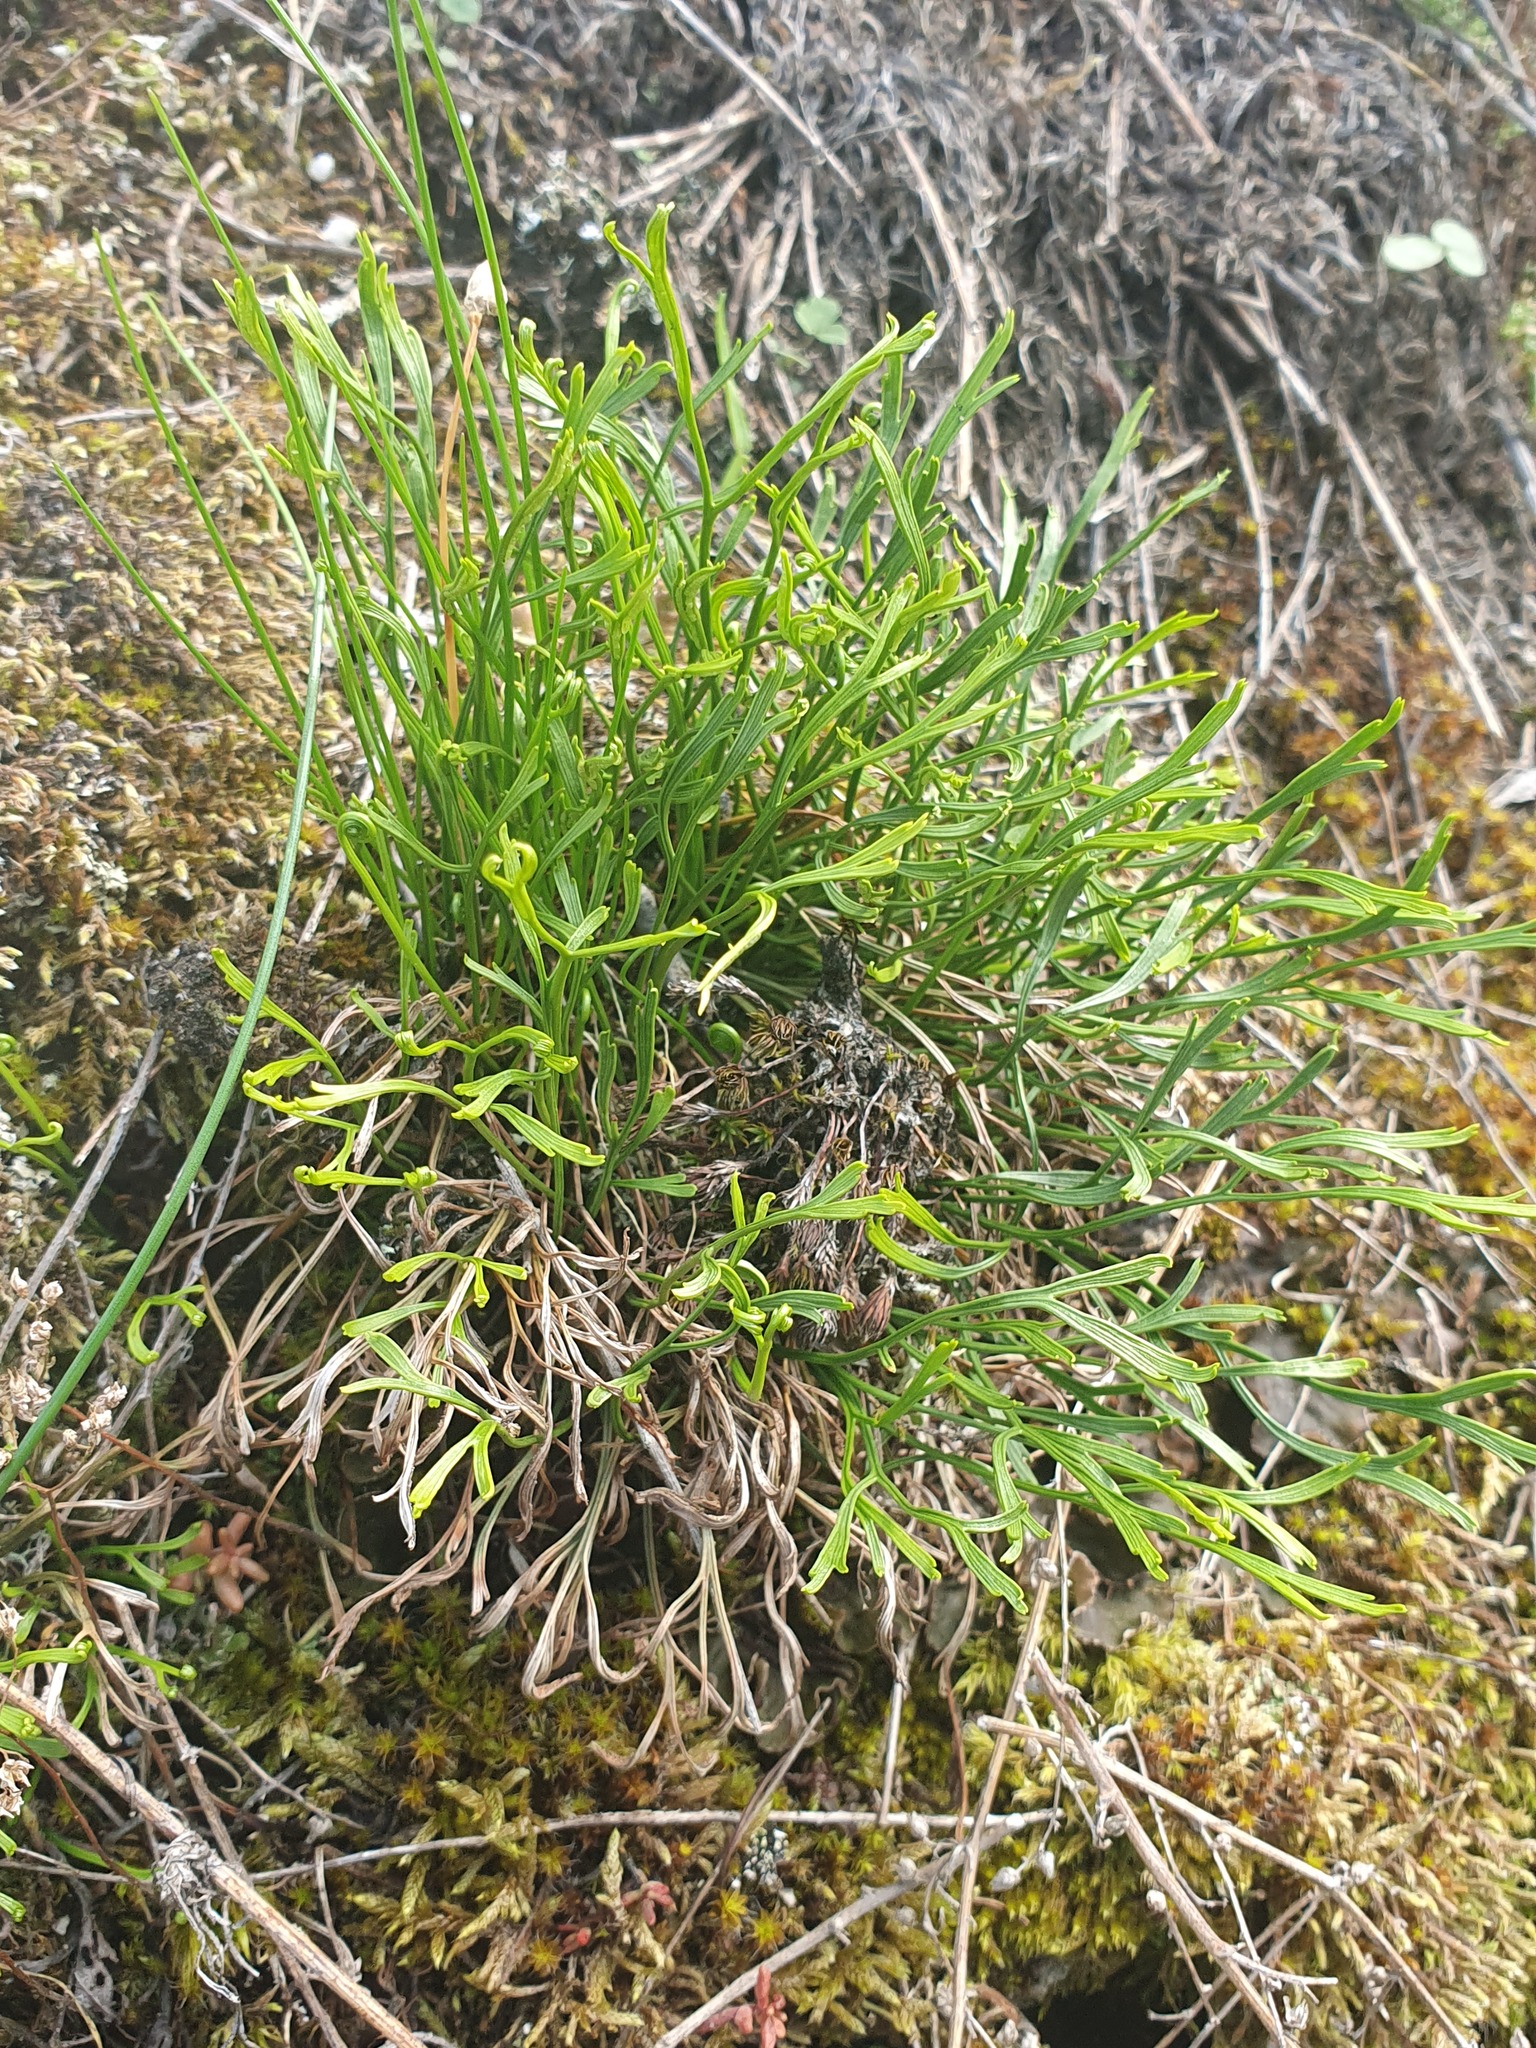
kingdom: Plantae
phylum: Tracheophyta
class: Polypodiopsida
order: Polypodiales
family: Aspleniaceae
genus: Asplenium
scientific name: Asplenium septentrionale
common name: Forked spleenwort
